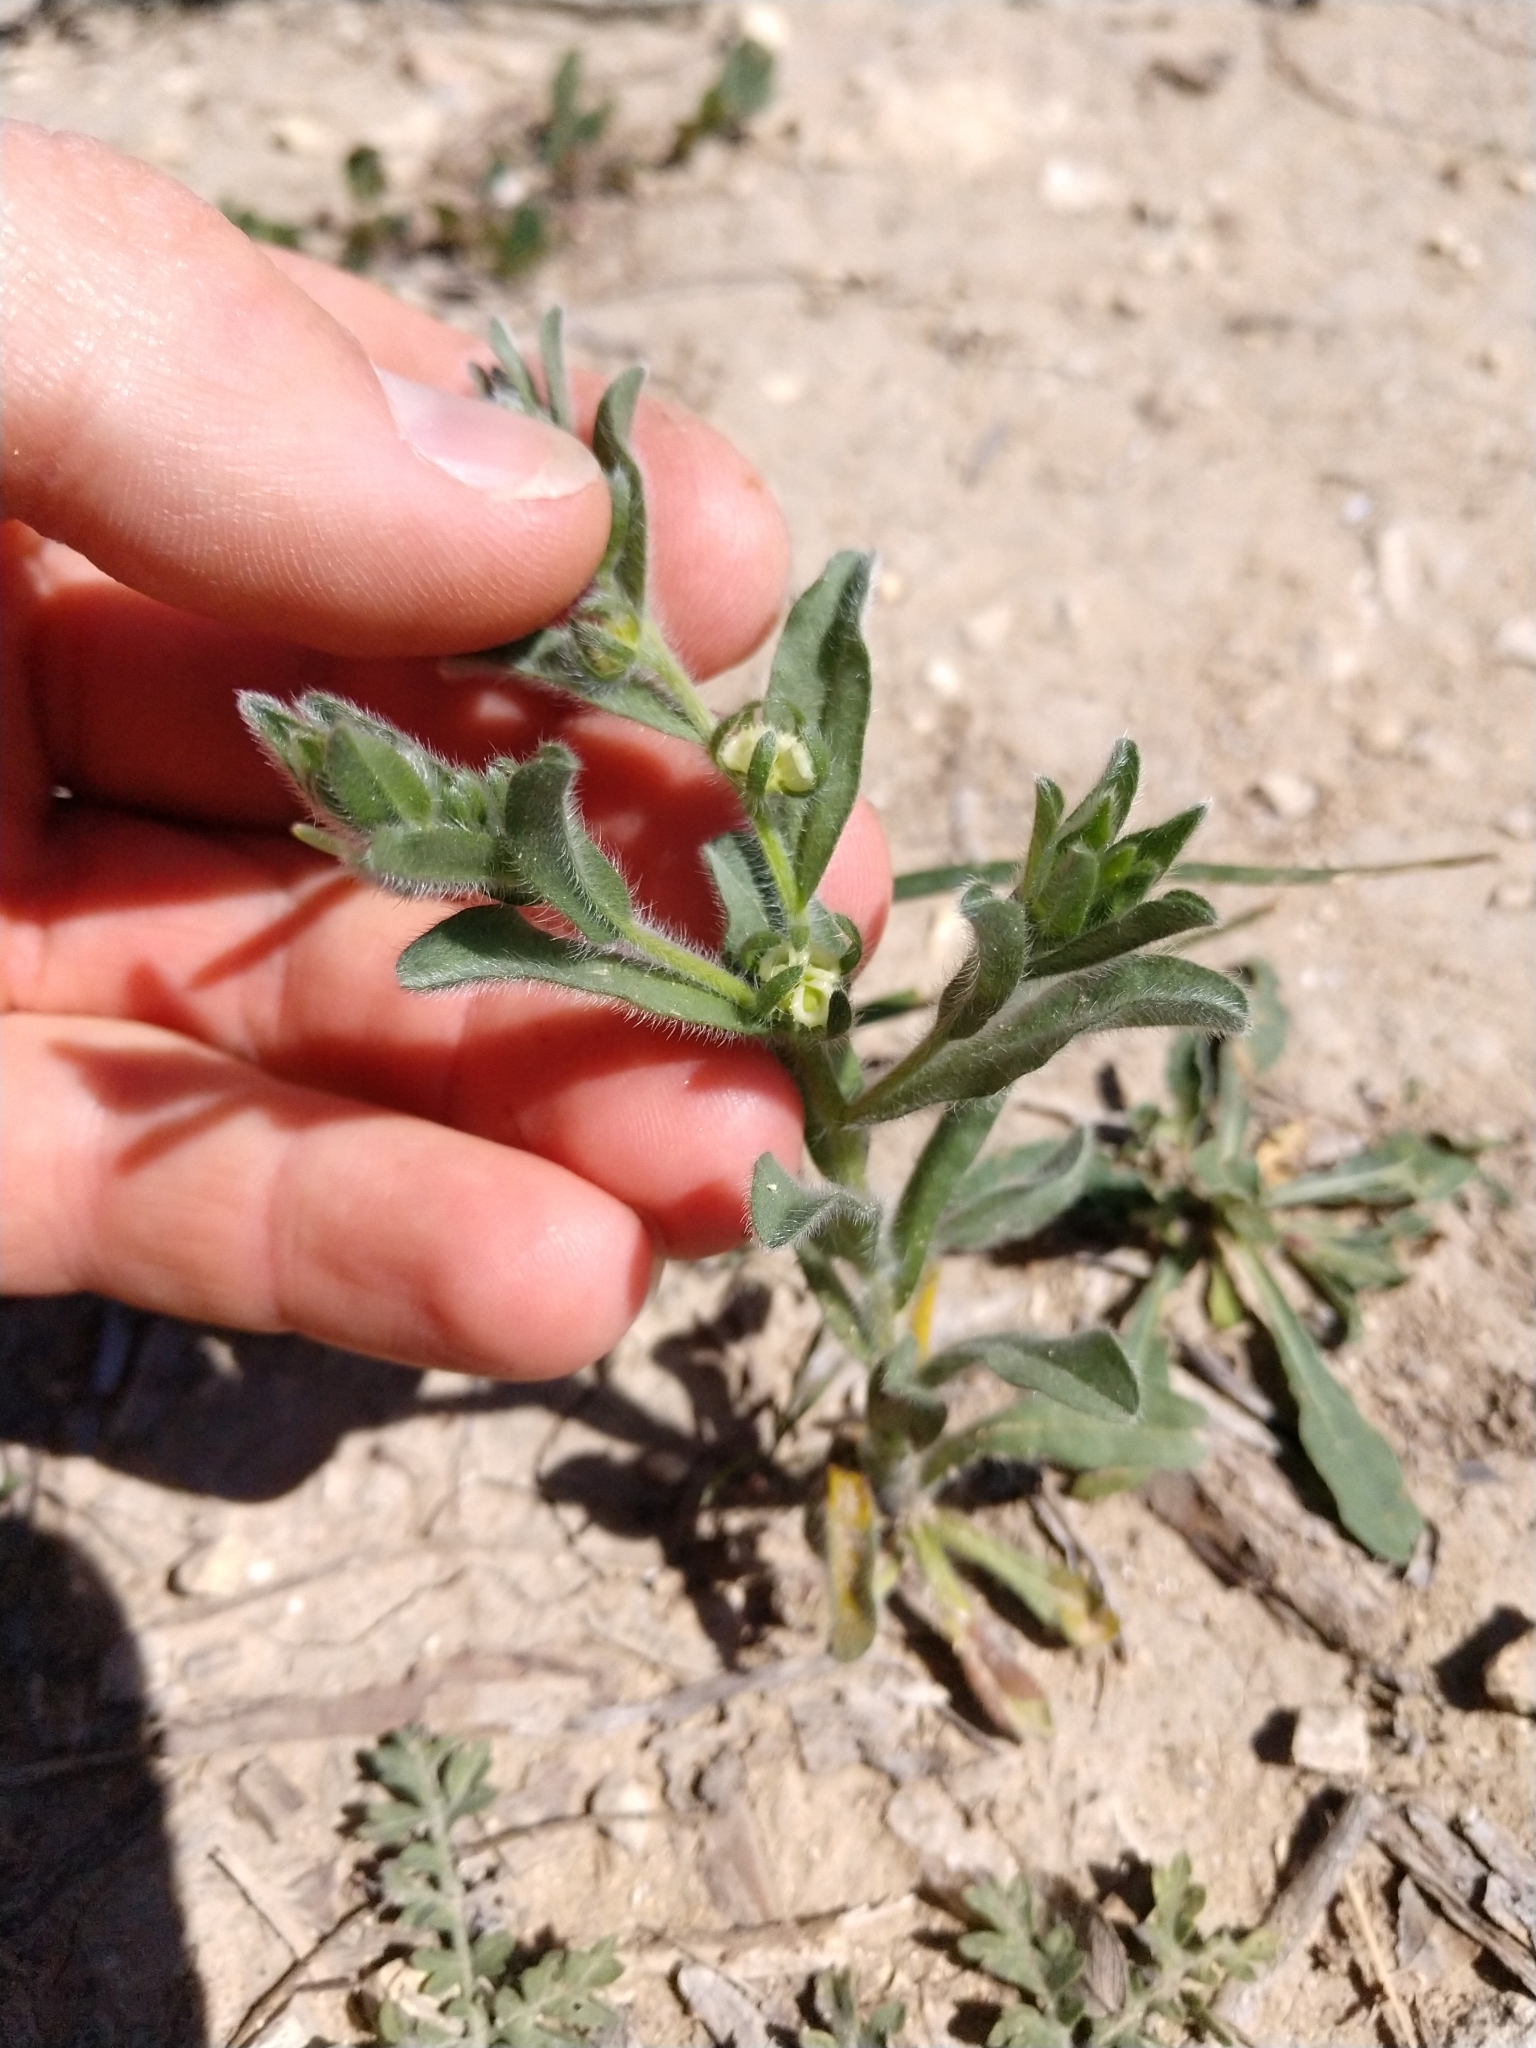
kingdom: Plantae
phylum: Tracheophyta
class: Magnoliopsida
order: Boraginales
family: Boraginaceae
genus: Lappula
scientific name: Lappula occidentalis
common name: Western stickseed
